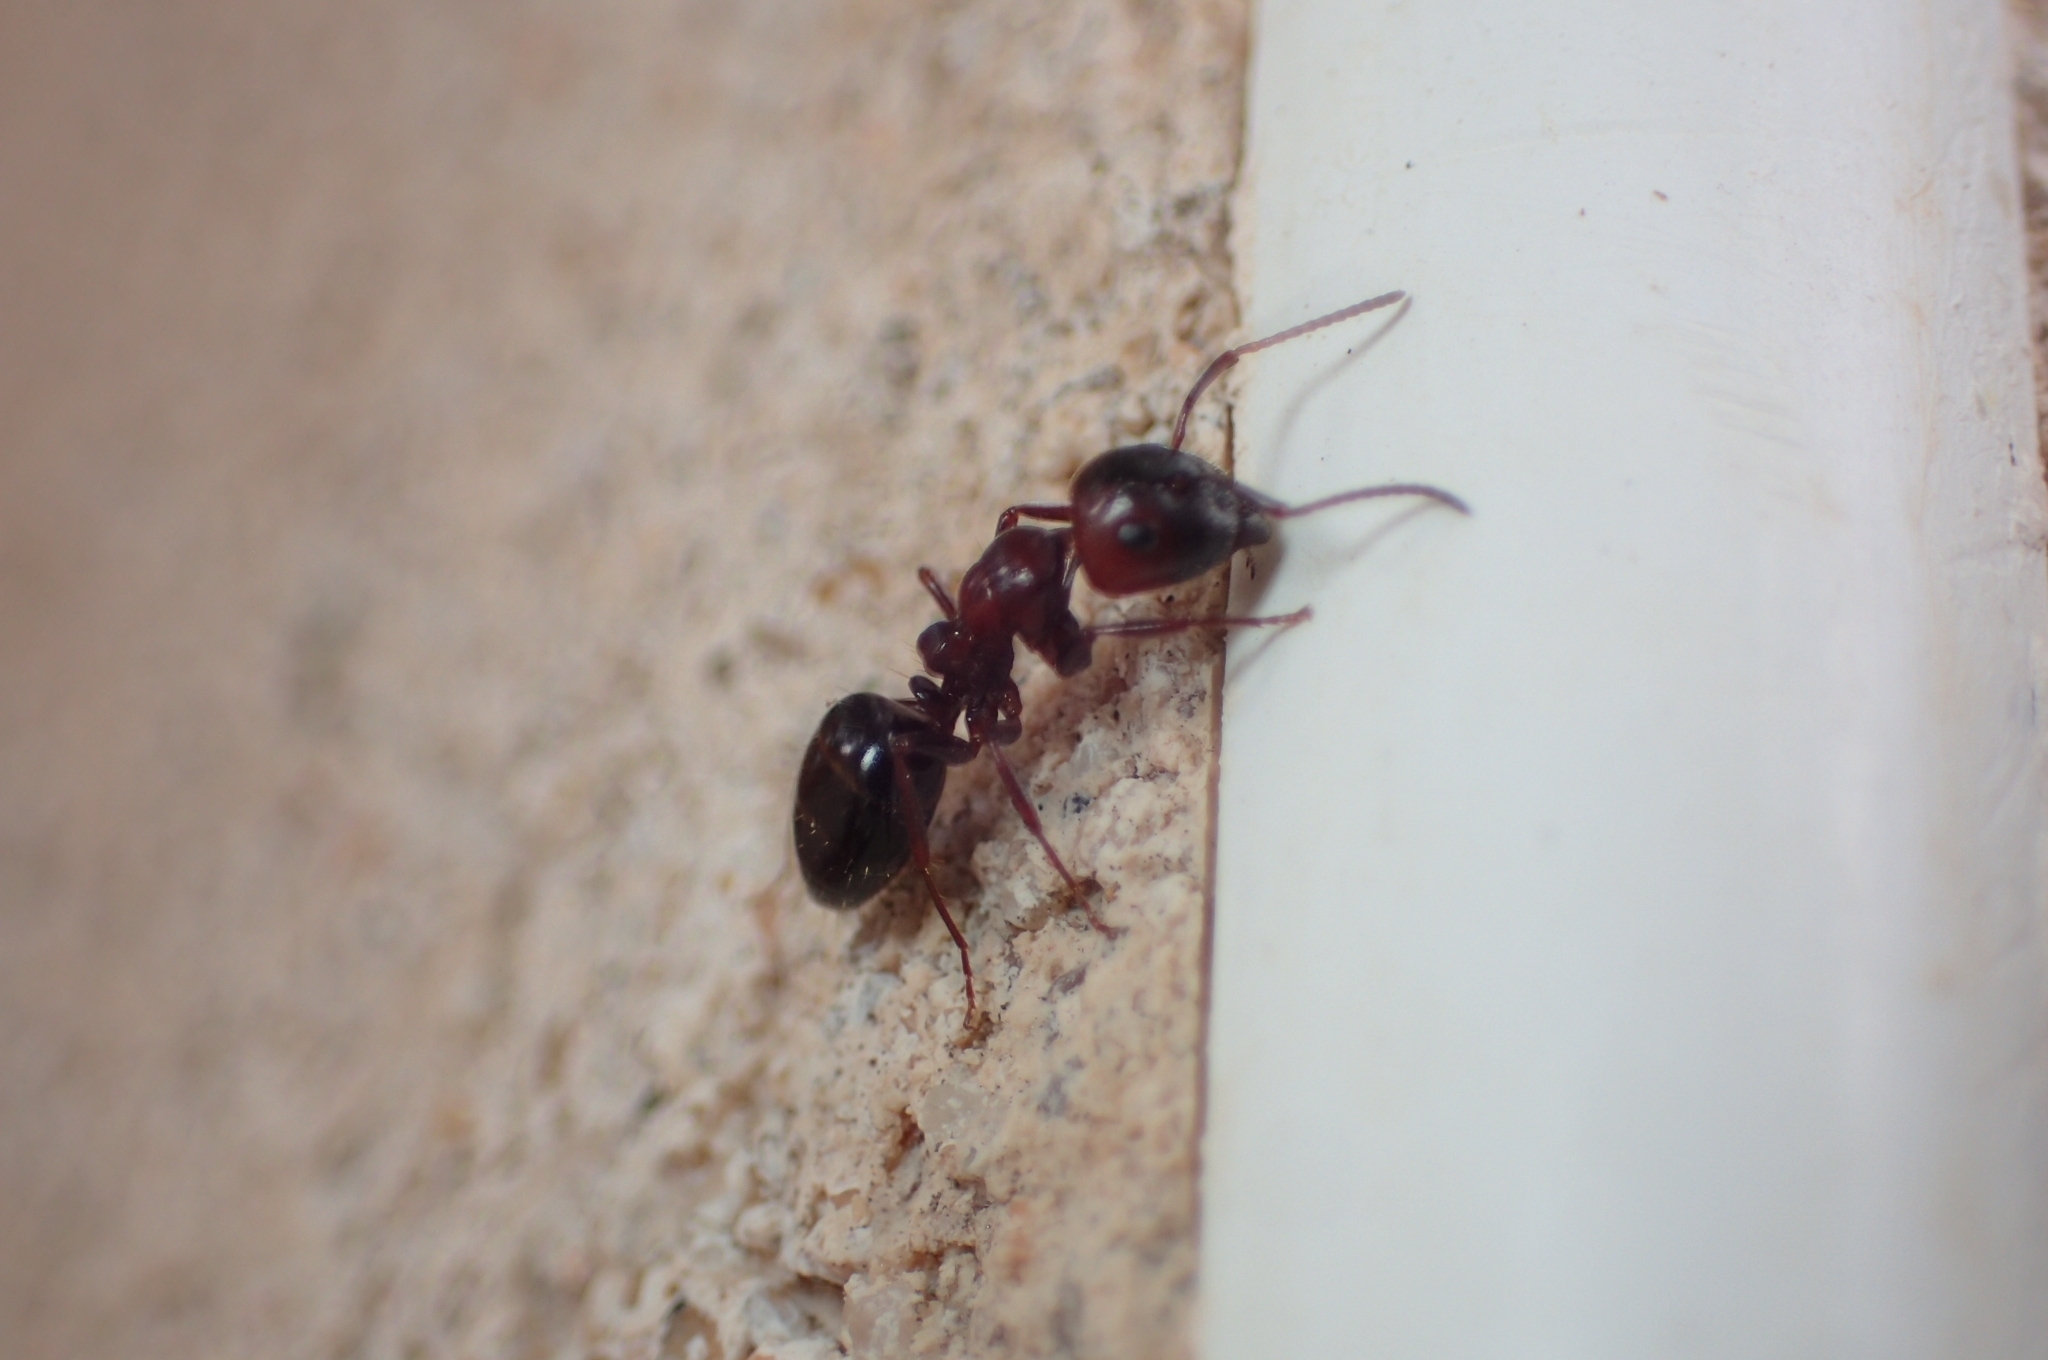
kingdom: Animalia
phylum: Arthropoda
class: Insecta
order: Hymenoptera
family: Formicidae
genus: Camponotus
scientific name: Camponotus lateralis
